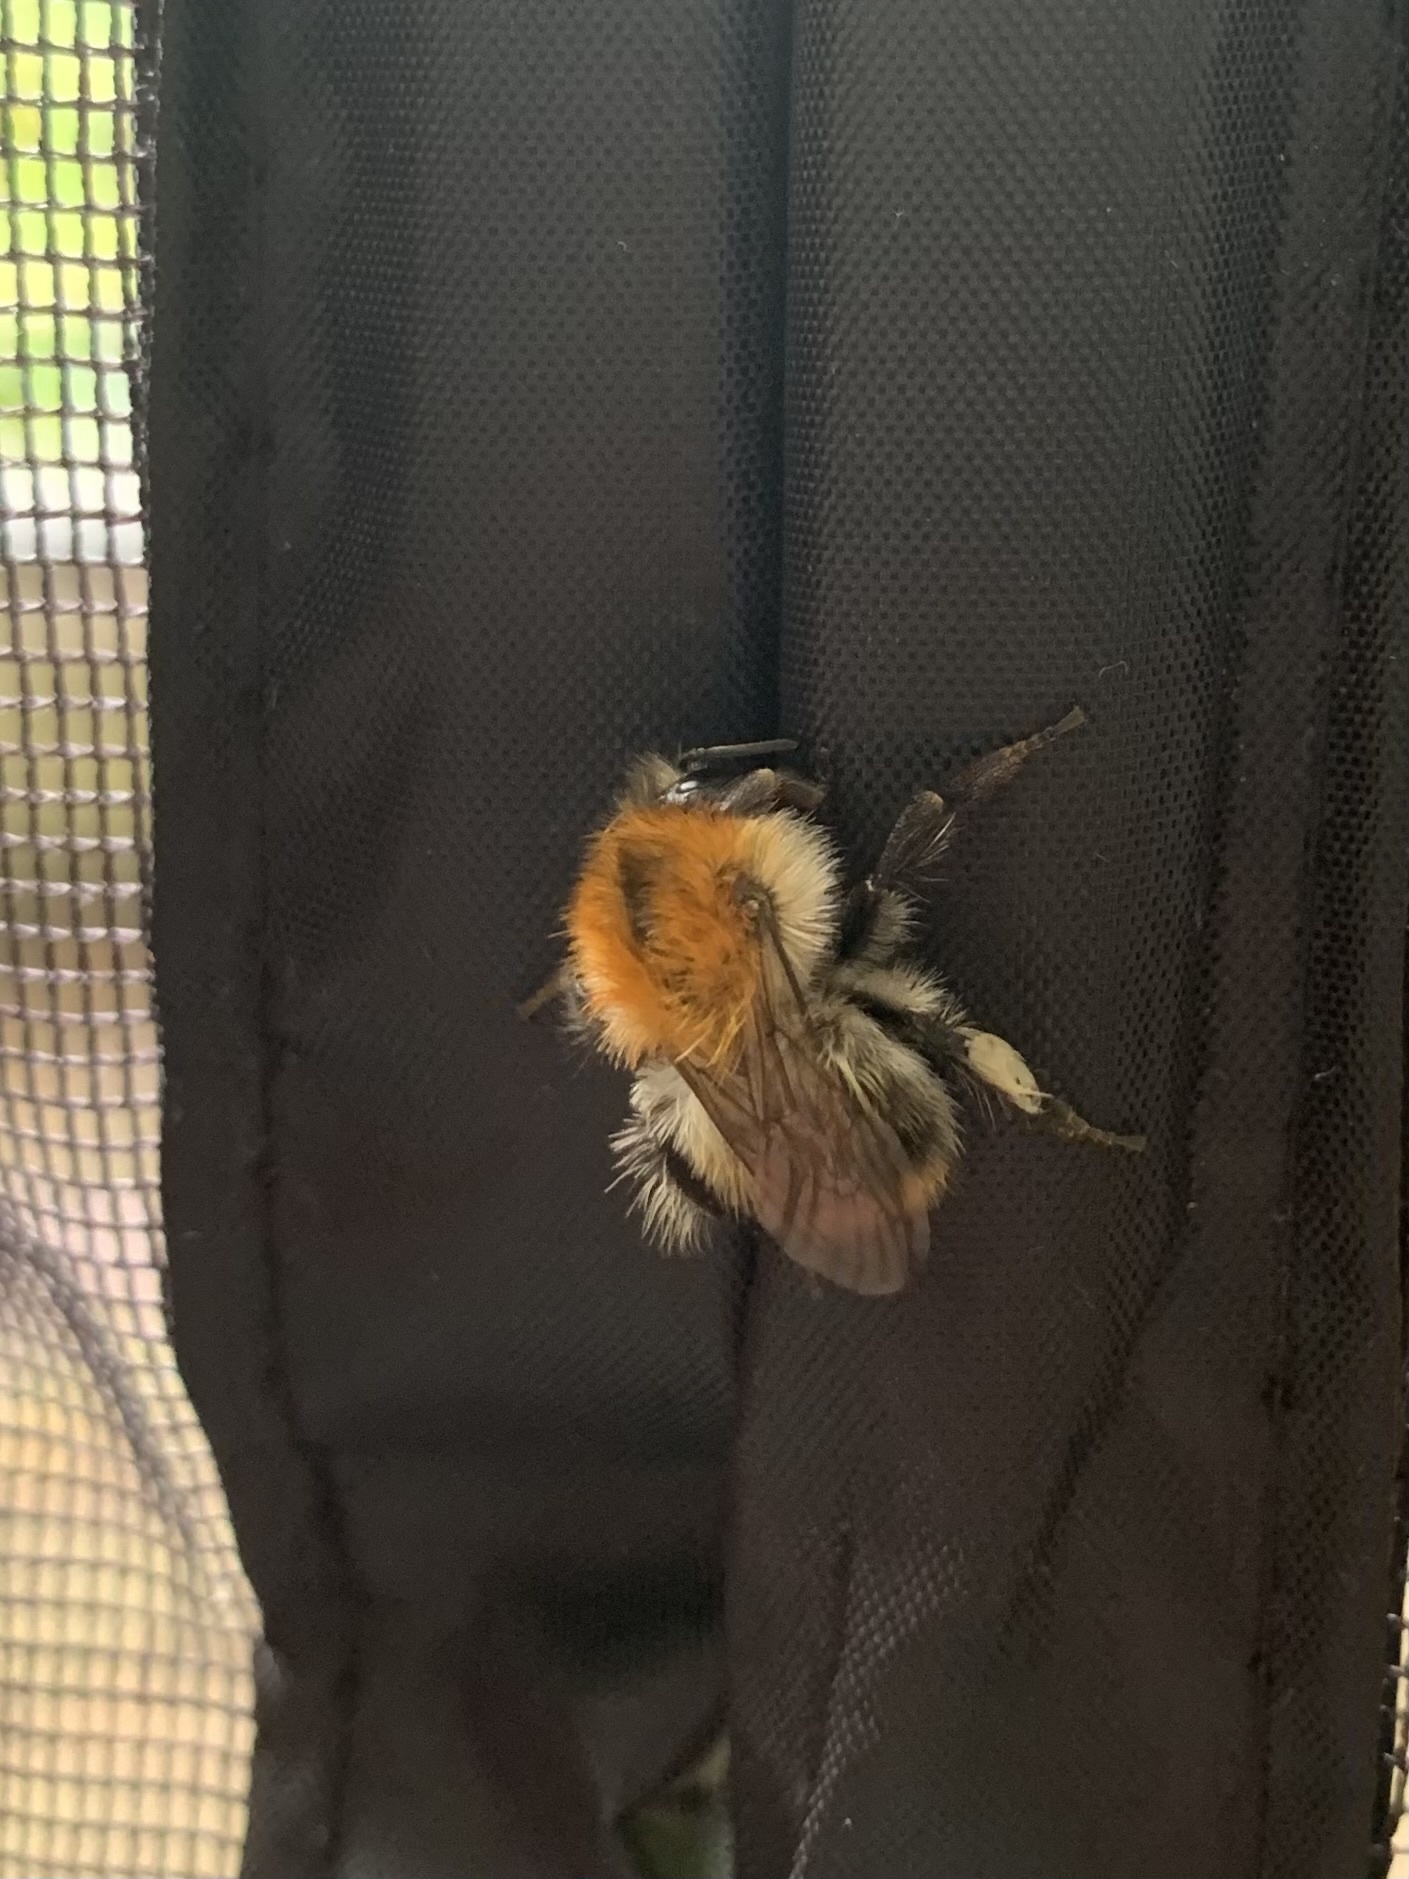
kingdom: Animalia
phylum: Arthropoda
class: Insecta
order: Hymenoptera
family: Apidae
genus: Bombus
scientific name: Bombus pascuorum
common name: Common carder bee
